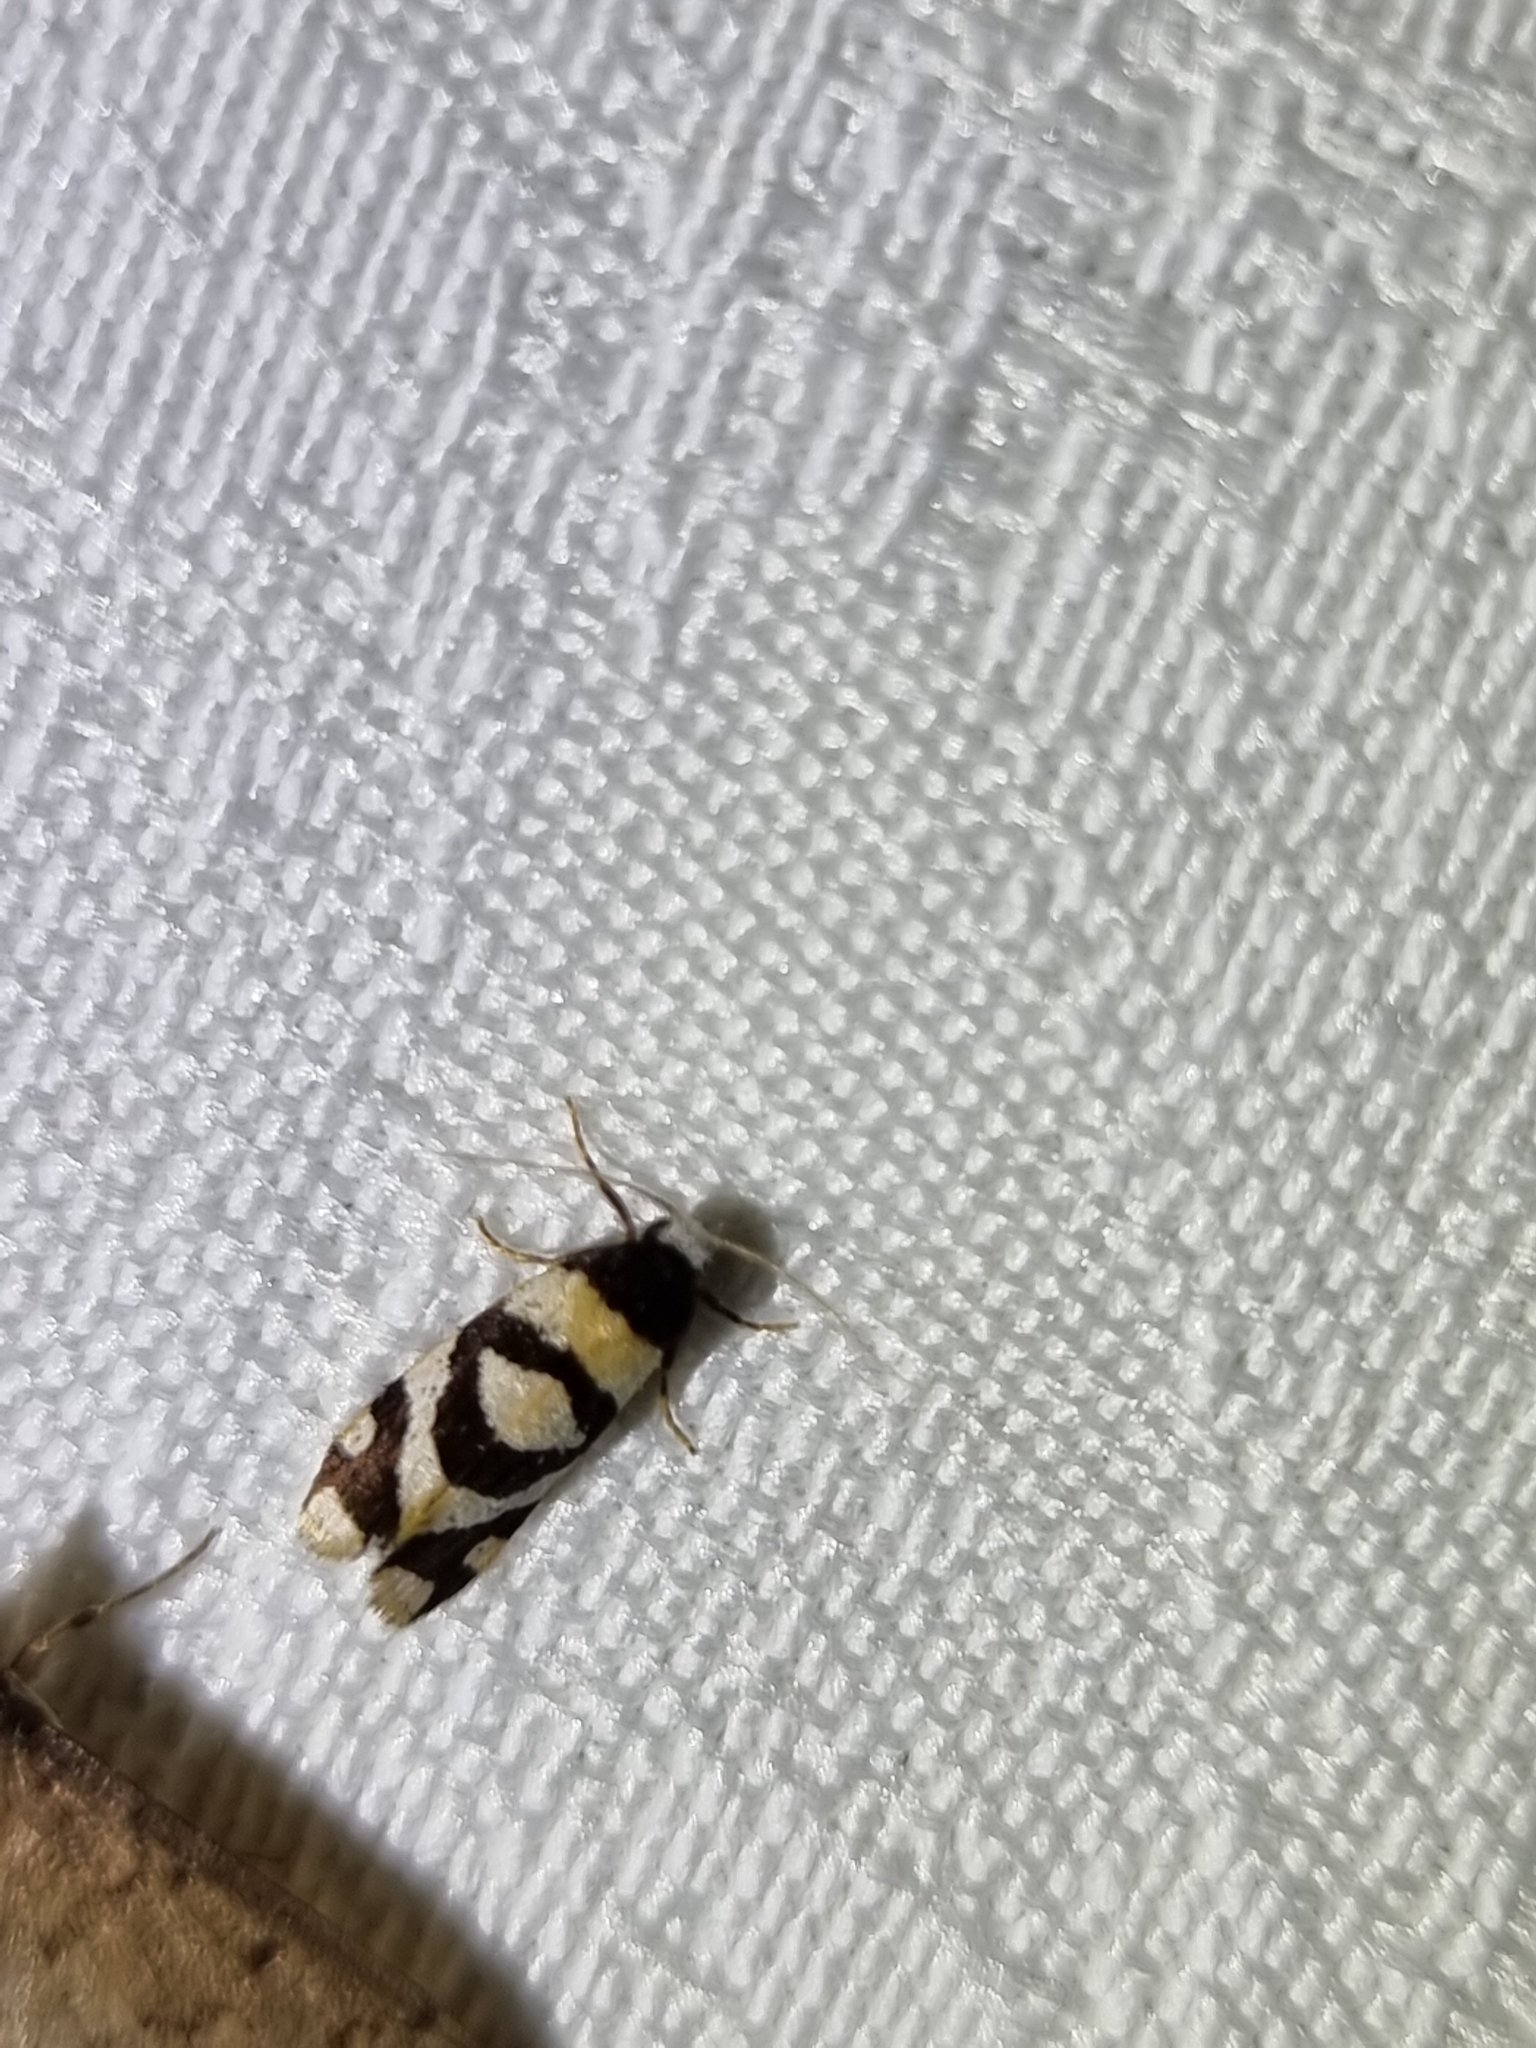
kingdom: Animalia
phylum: Arthropoda
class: Insecta
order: Lepidoptera
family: Erebidae
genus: Scaptesyle
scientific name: Scaptesyle dichotoma
